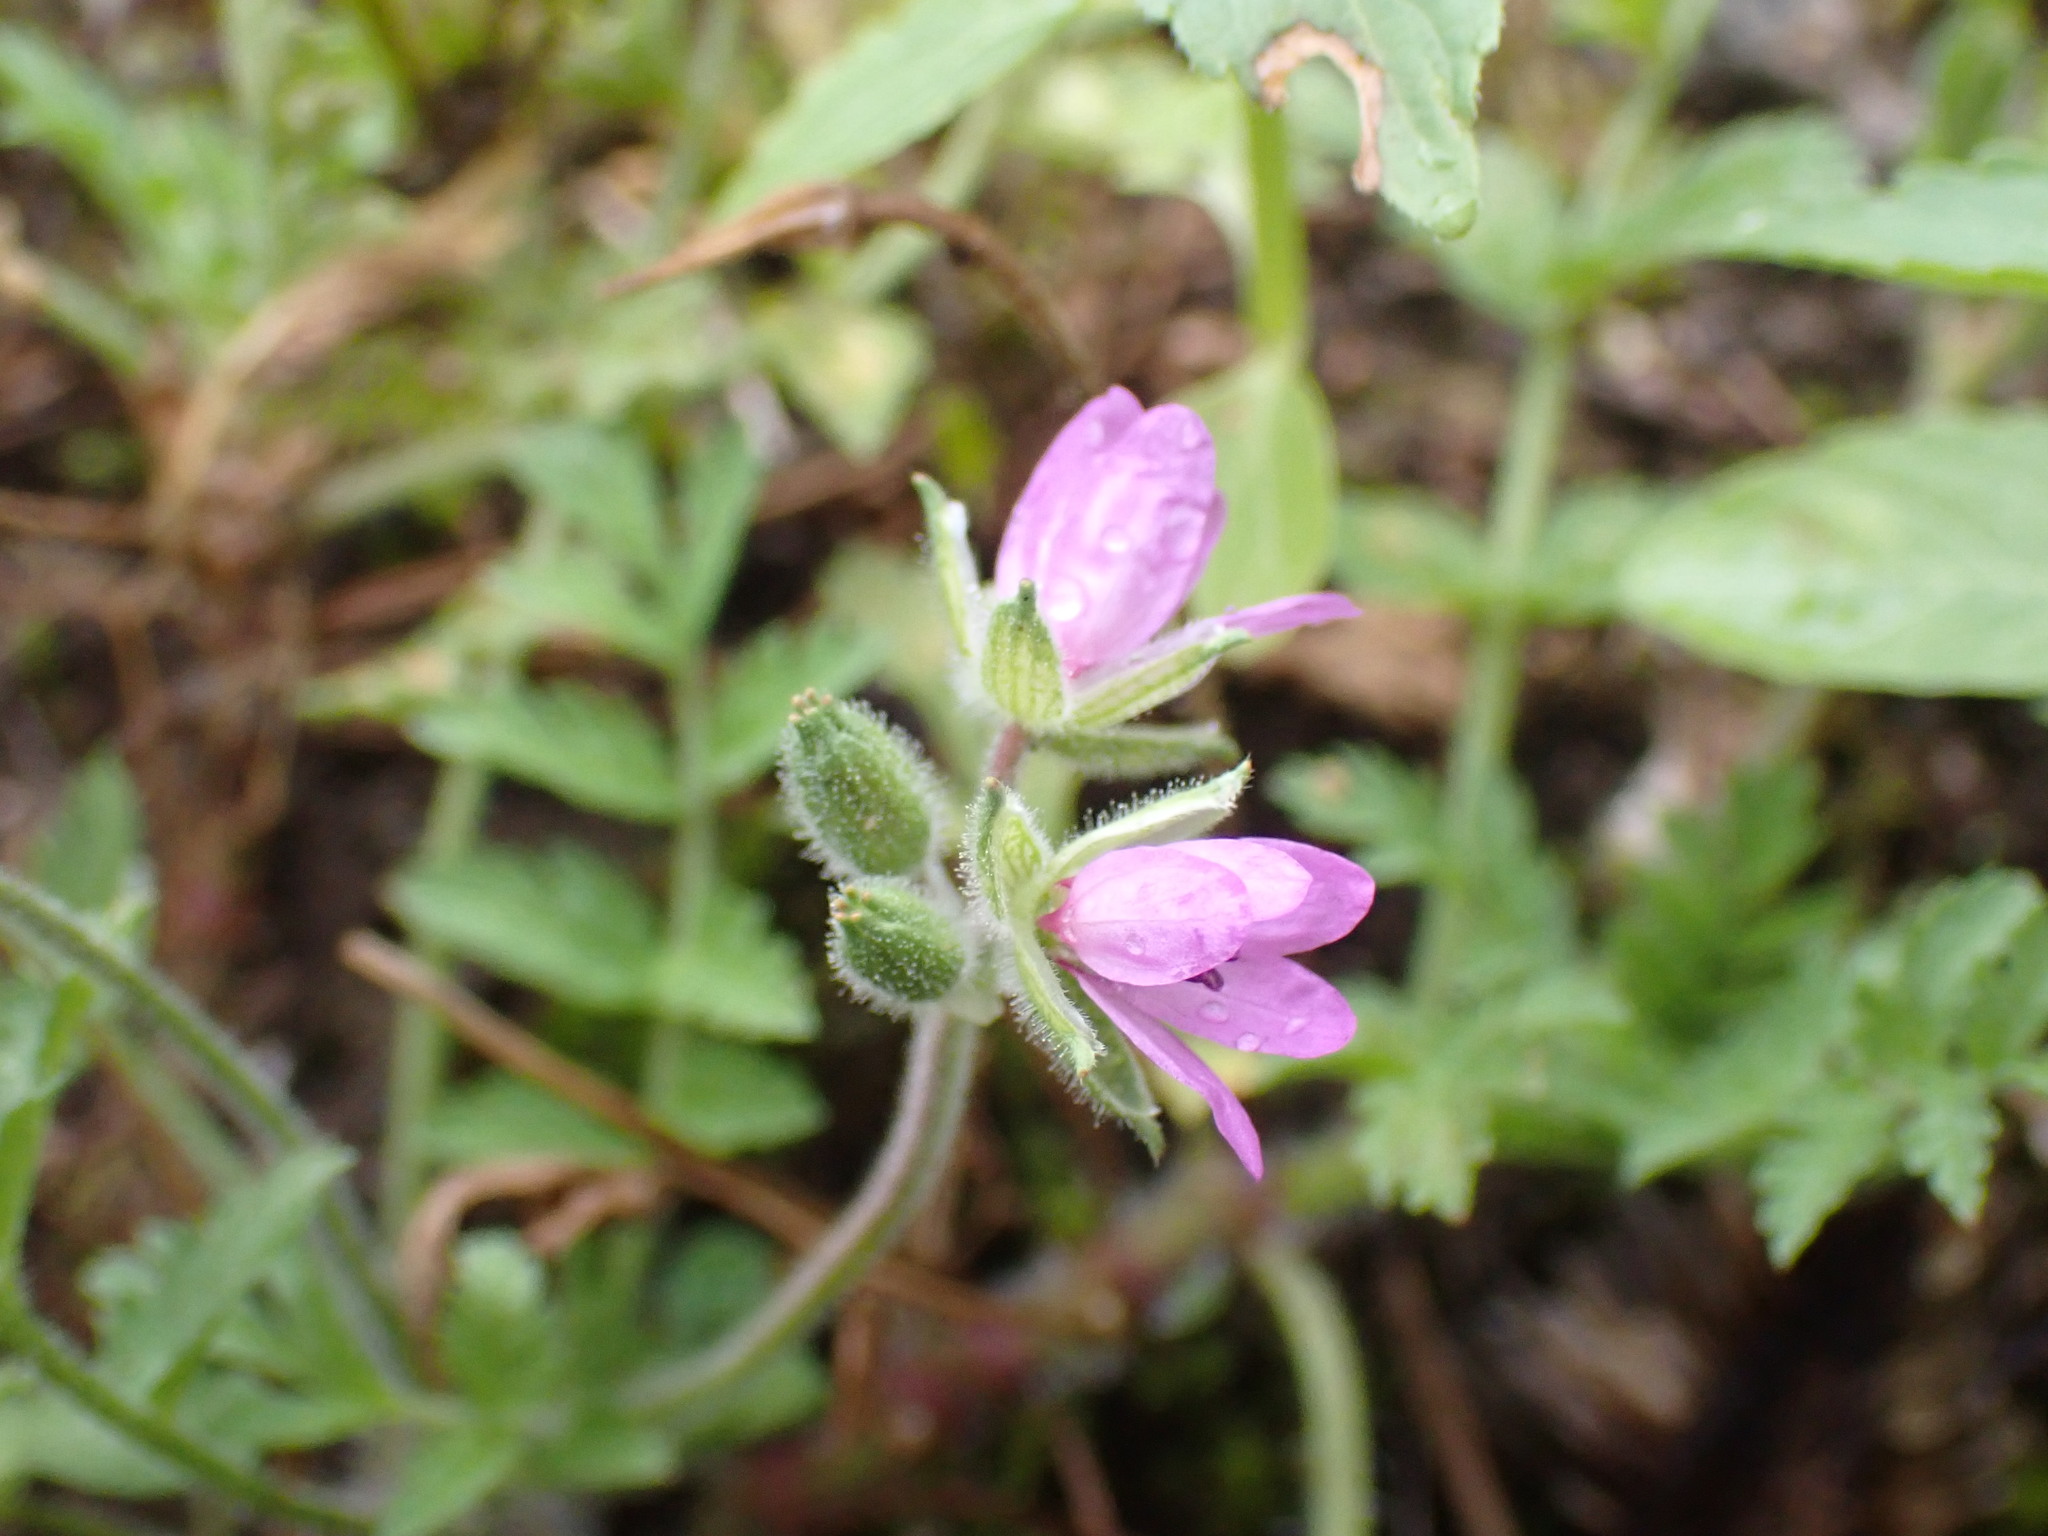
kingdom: Plantae
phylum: Tracheophyta
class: Magnoliopsida
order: Geraniales
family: Geraniaceae
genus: Erodium
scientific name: Erodium moschatum
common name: Musk stork's-bill
